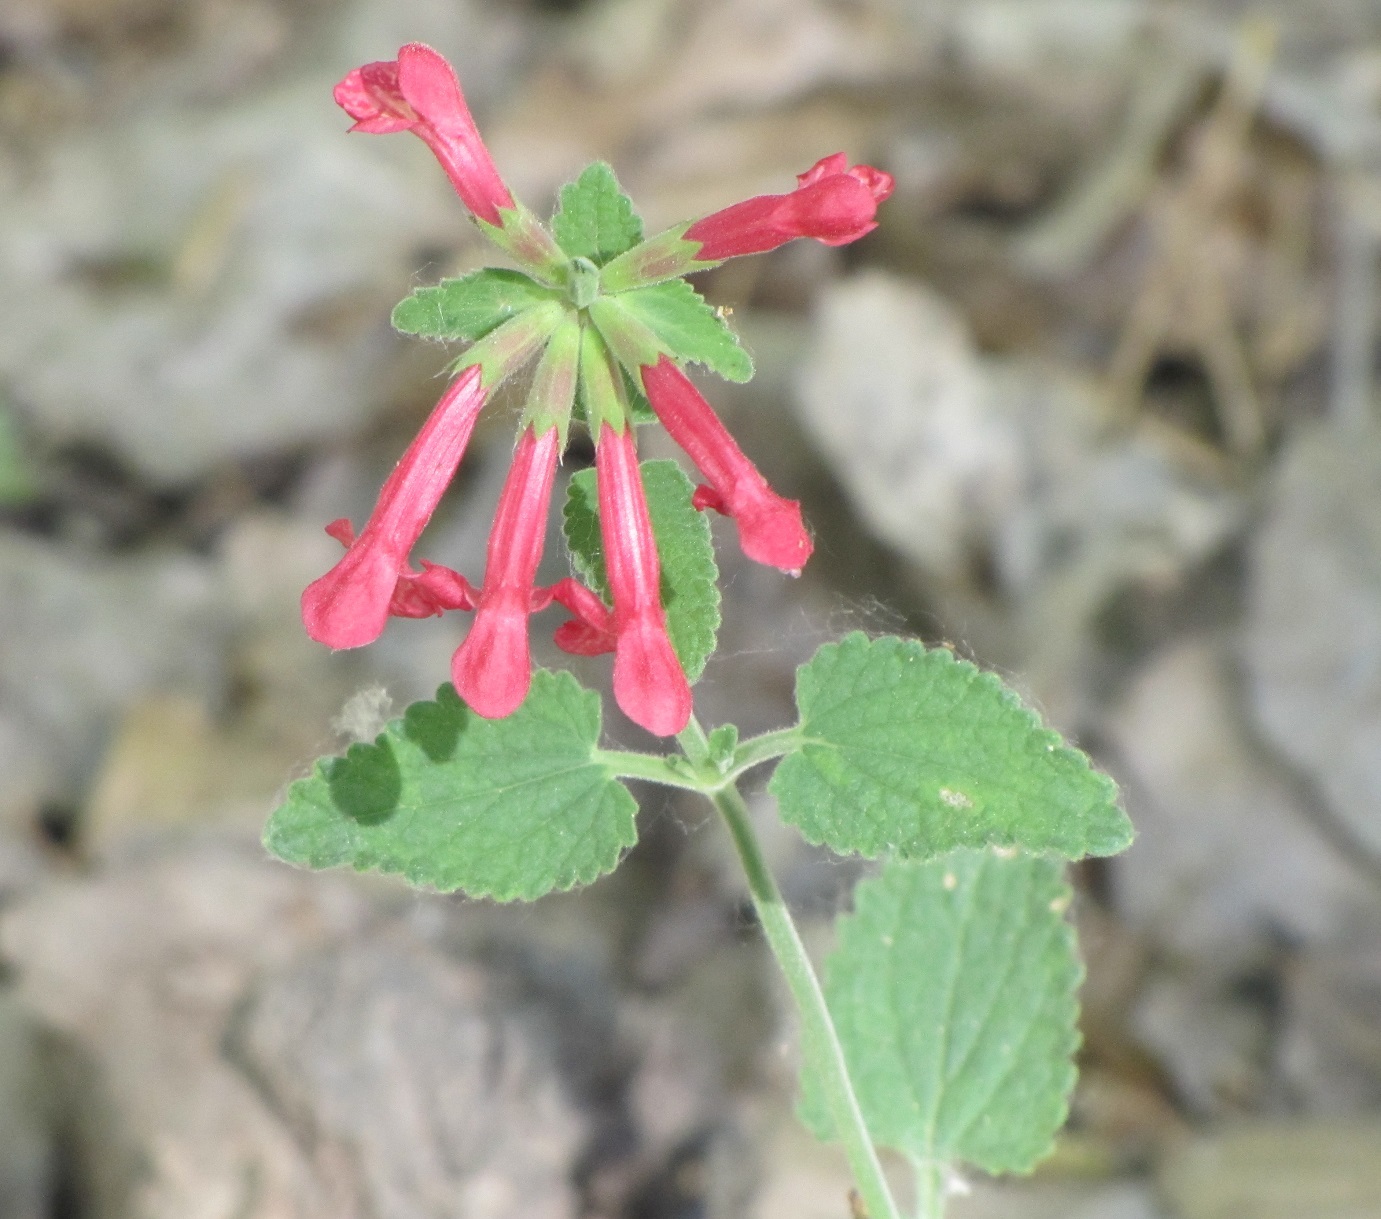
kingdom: Plantae
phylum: Tracheophyta
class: Magnoliopsida
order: Lamiales
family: Lamiaceae
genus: Stachys
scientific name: Stachys coccinea
